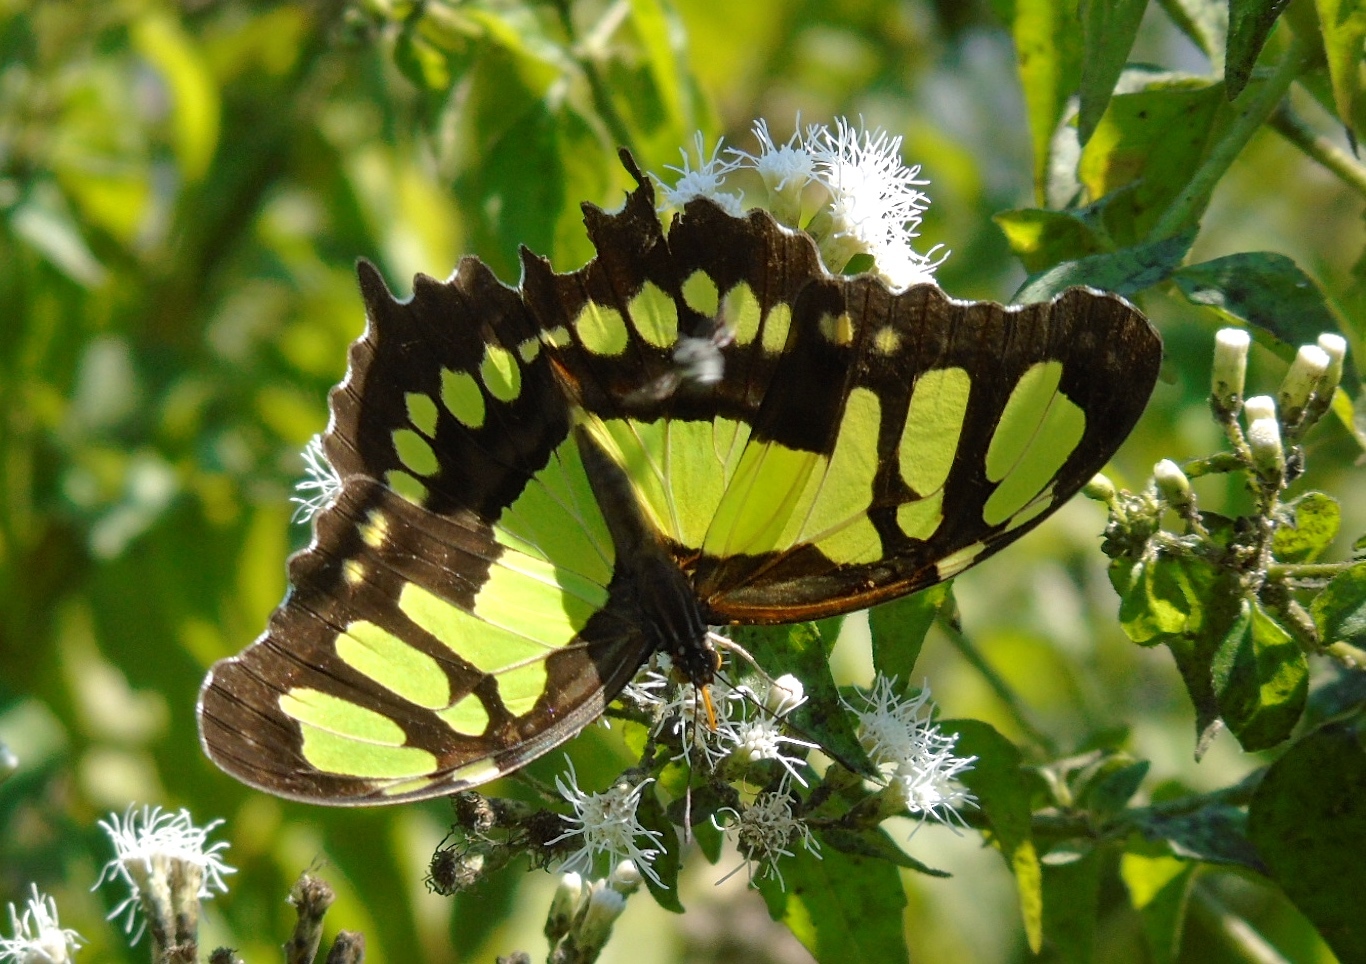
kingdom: Animalia
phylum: Arthropoda
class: Insecta
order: Lepidoptera
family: Nymphalidae
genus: Siproeta
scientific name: Siproeta stelenes
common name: Malachite
